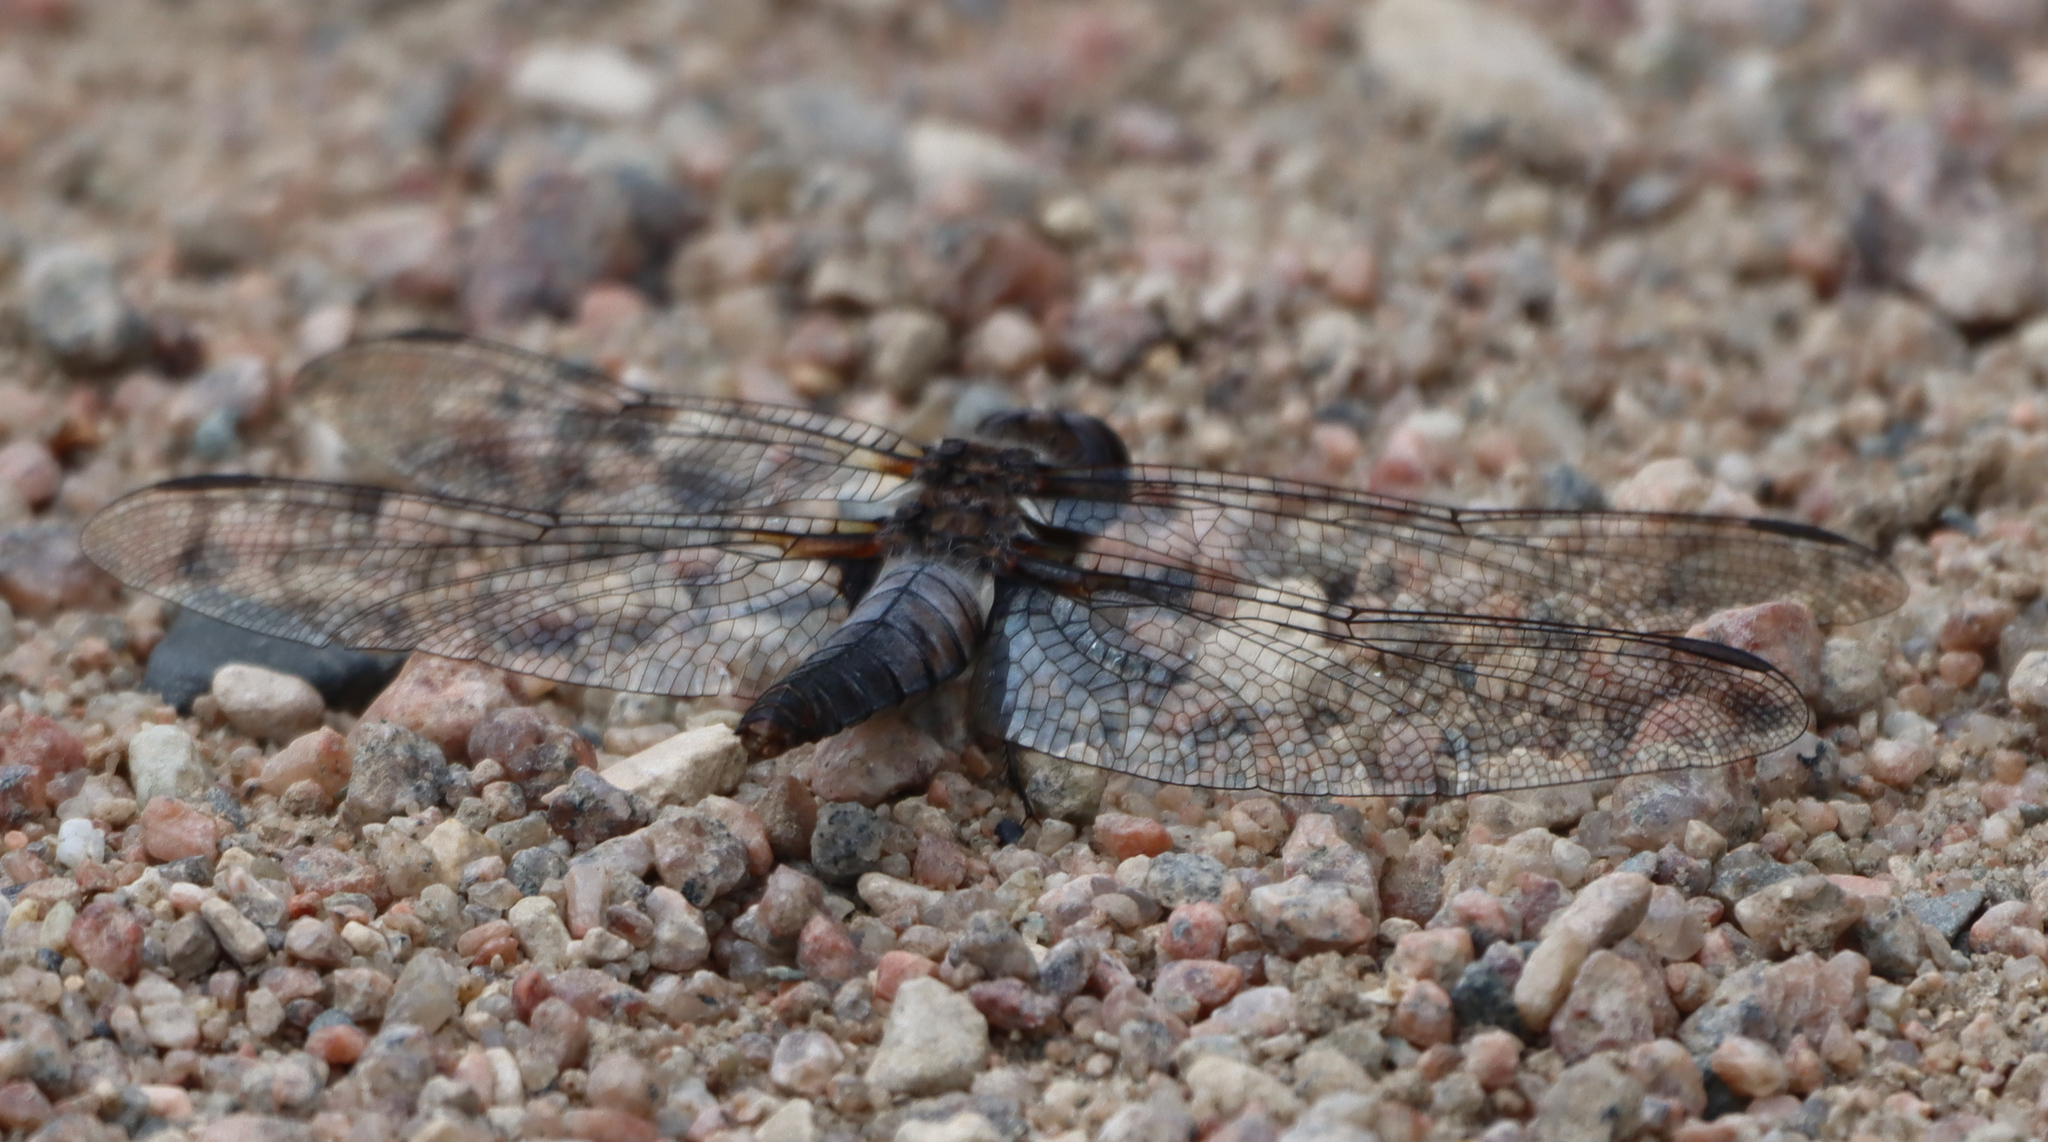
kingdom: Animalia
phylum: Arthropoda
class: Insecta
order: Odonata
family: Libellulidae
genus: Ladona
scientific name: Ladona julia
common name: Chalk-fronted corporal
